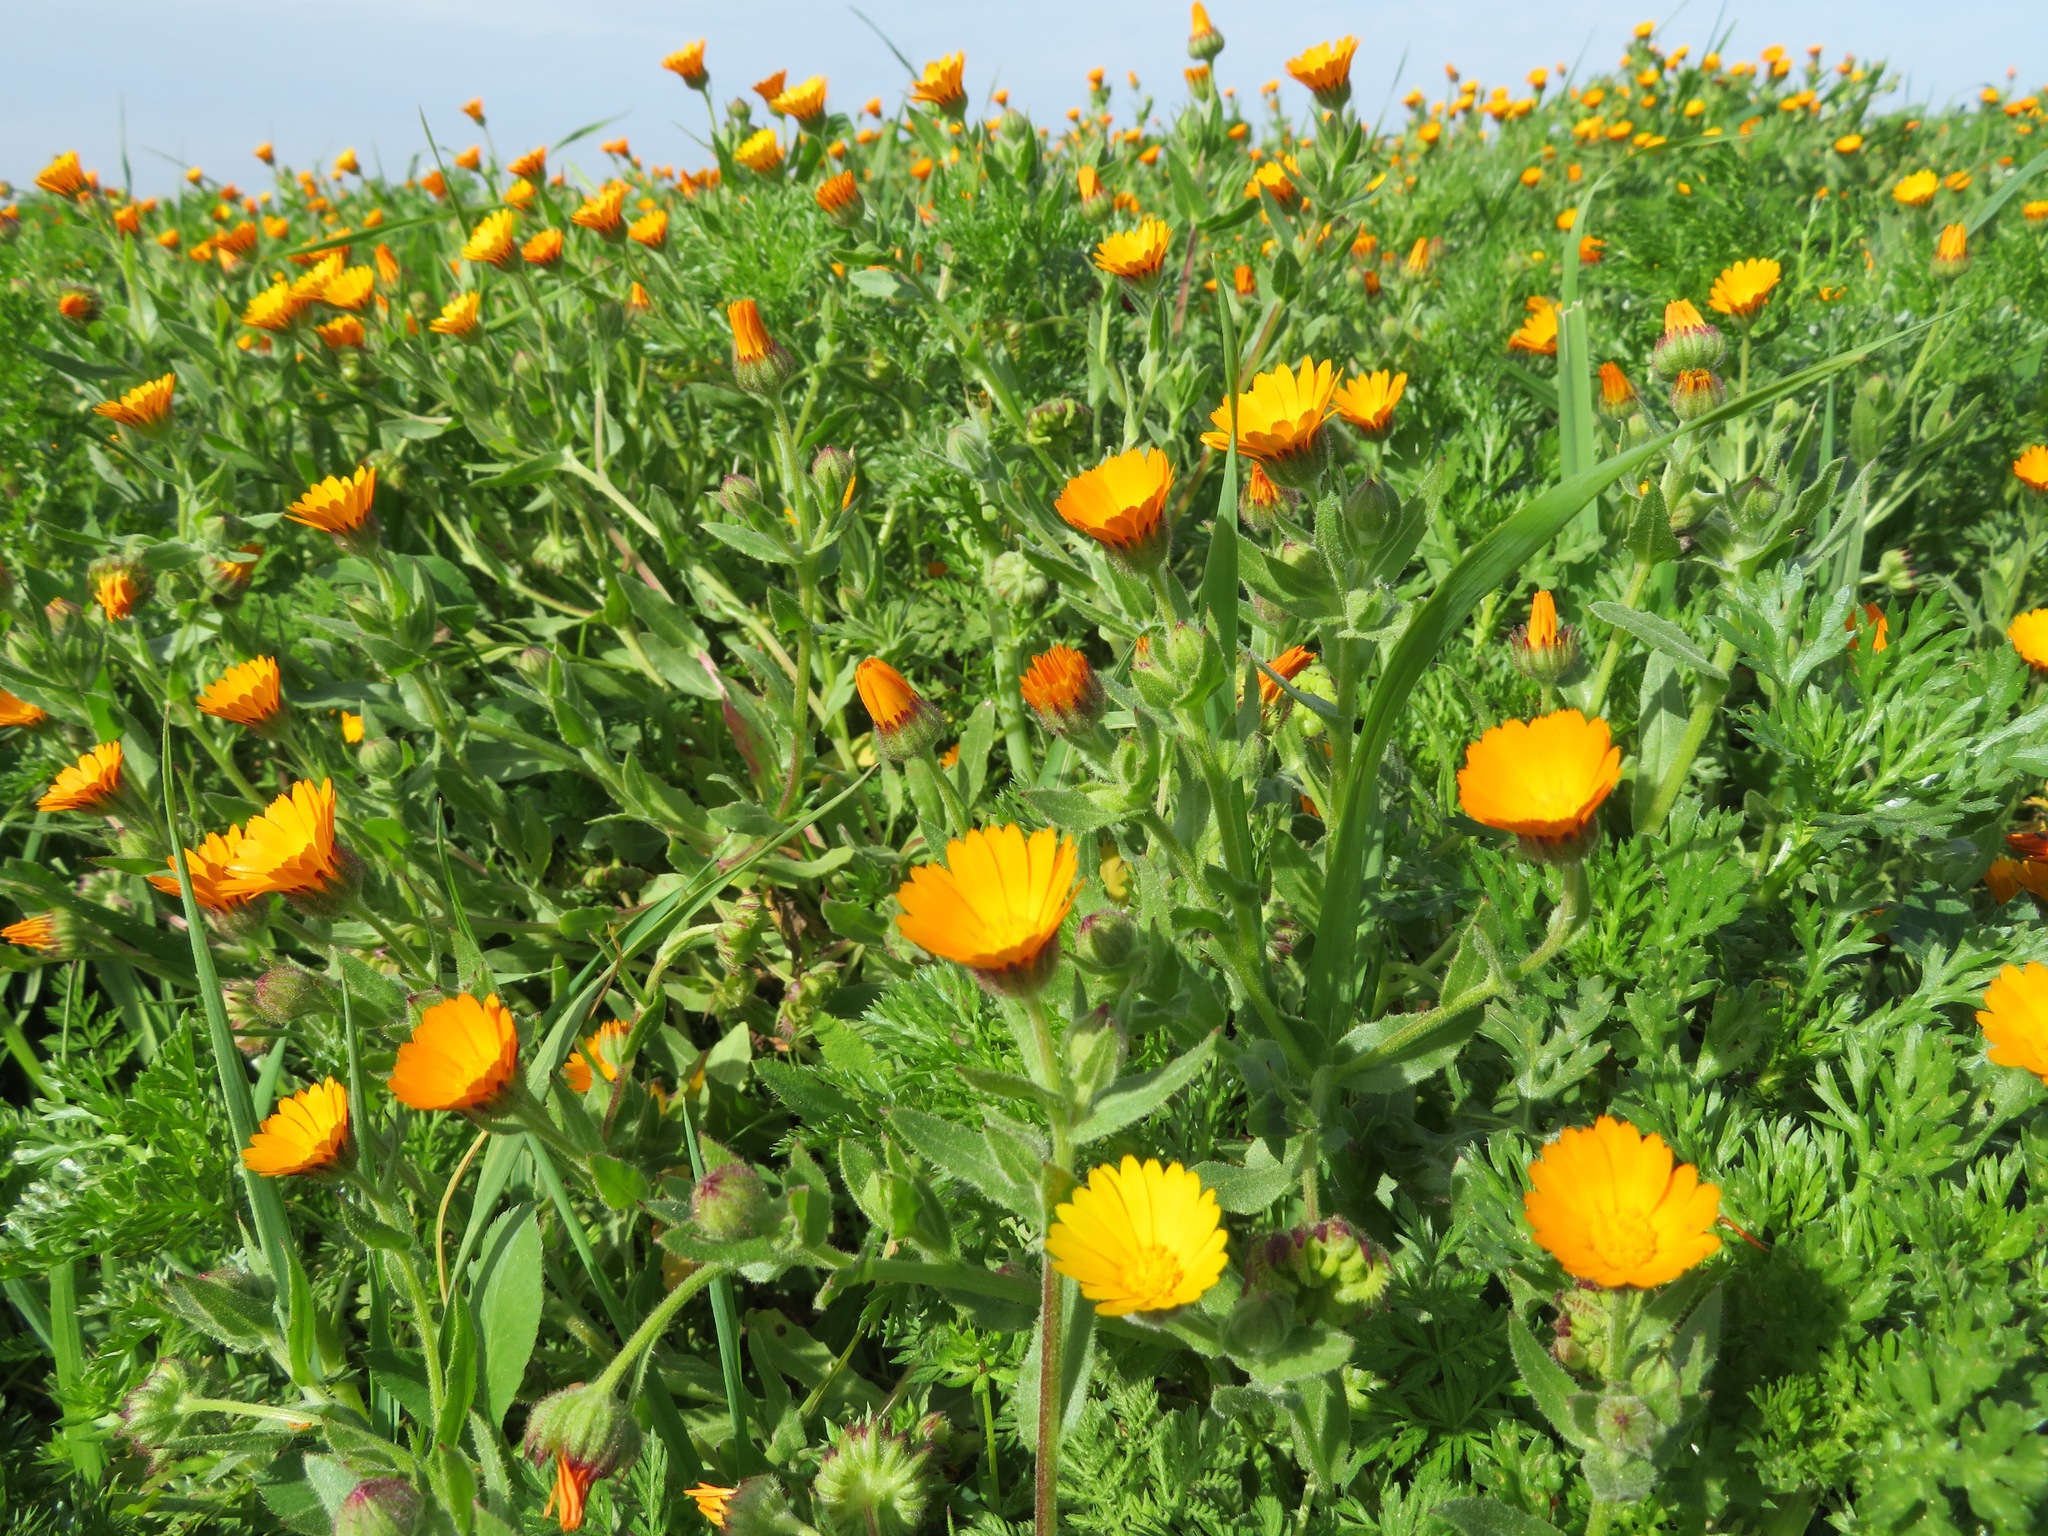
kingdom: Plantae
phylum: Tracheophyta
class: Magnoliopsida
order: Asterales
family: Asteraceae
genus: Calendula
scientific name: Calendula arvensis
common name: Field marigold
